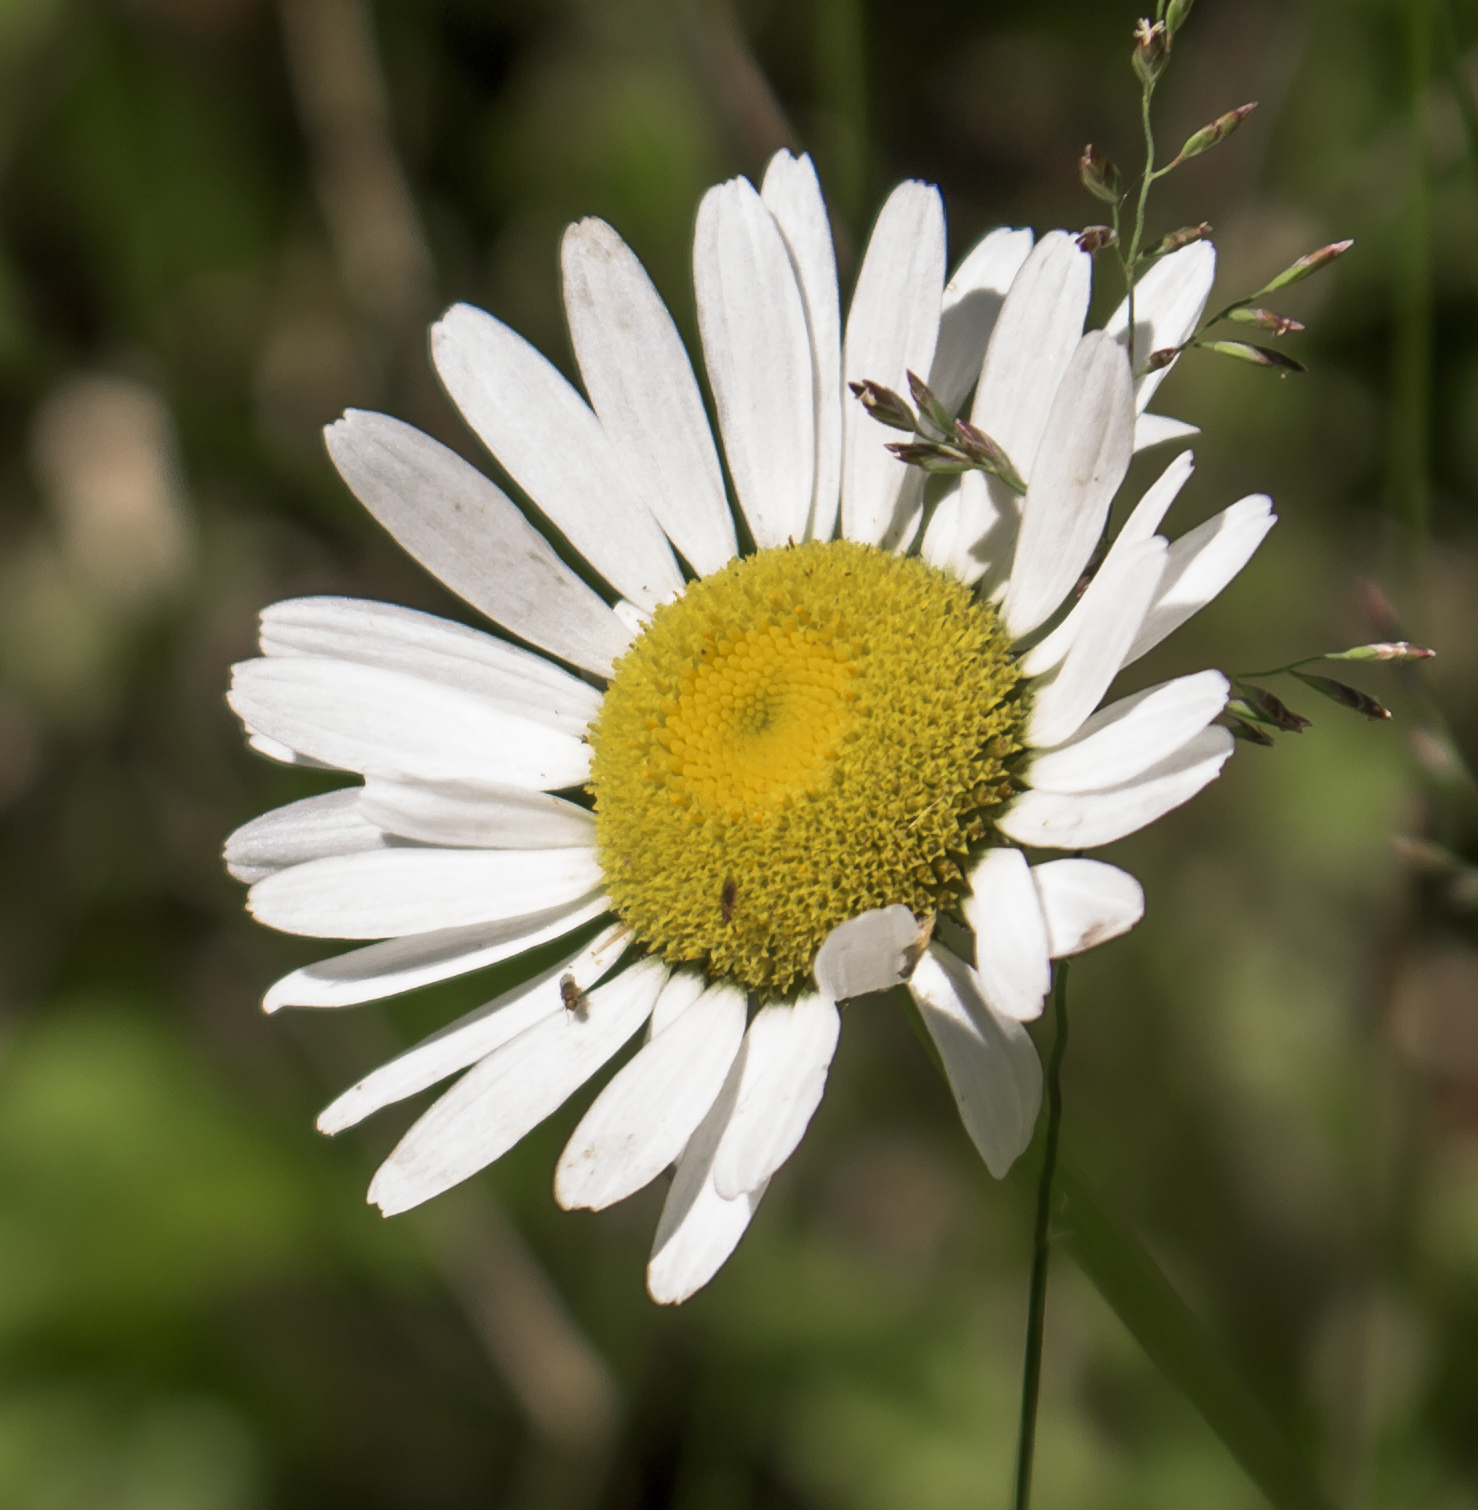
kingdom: Plantae
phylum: Tracheophyta
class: Magnoliopsida
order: Asterales
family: Asteraceae
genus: Leucanthemum
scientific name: Leucanthemum vulgare
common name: Oxeye daisy
